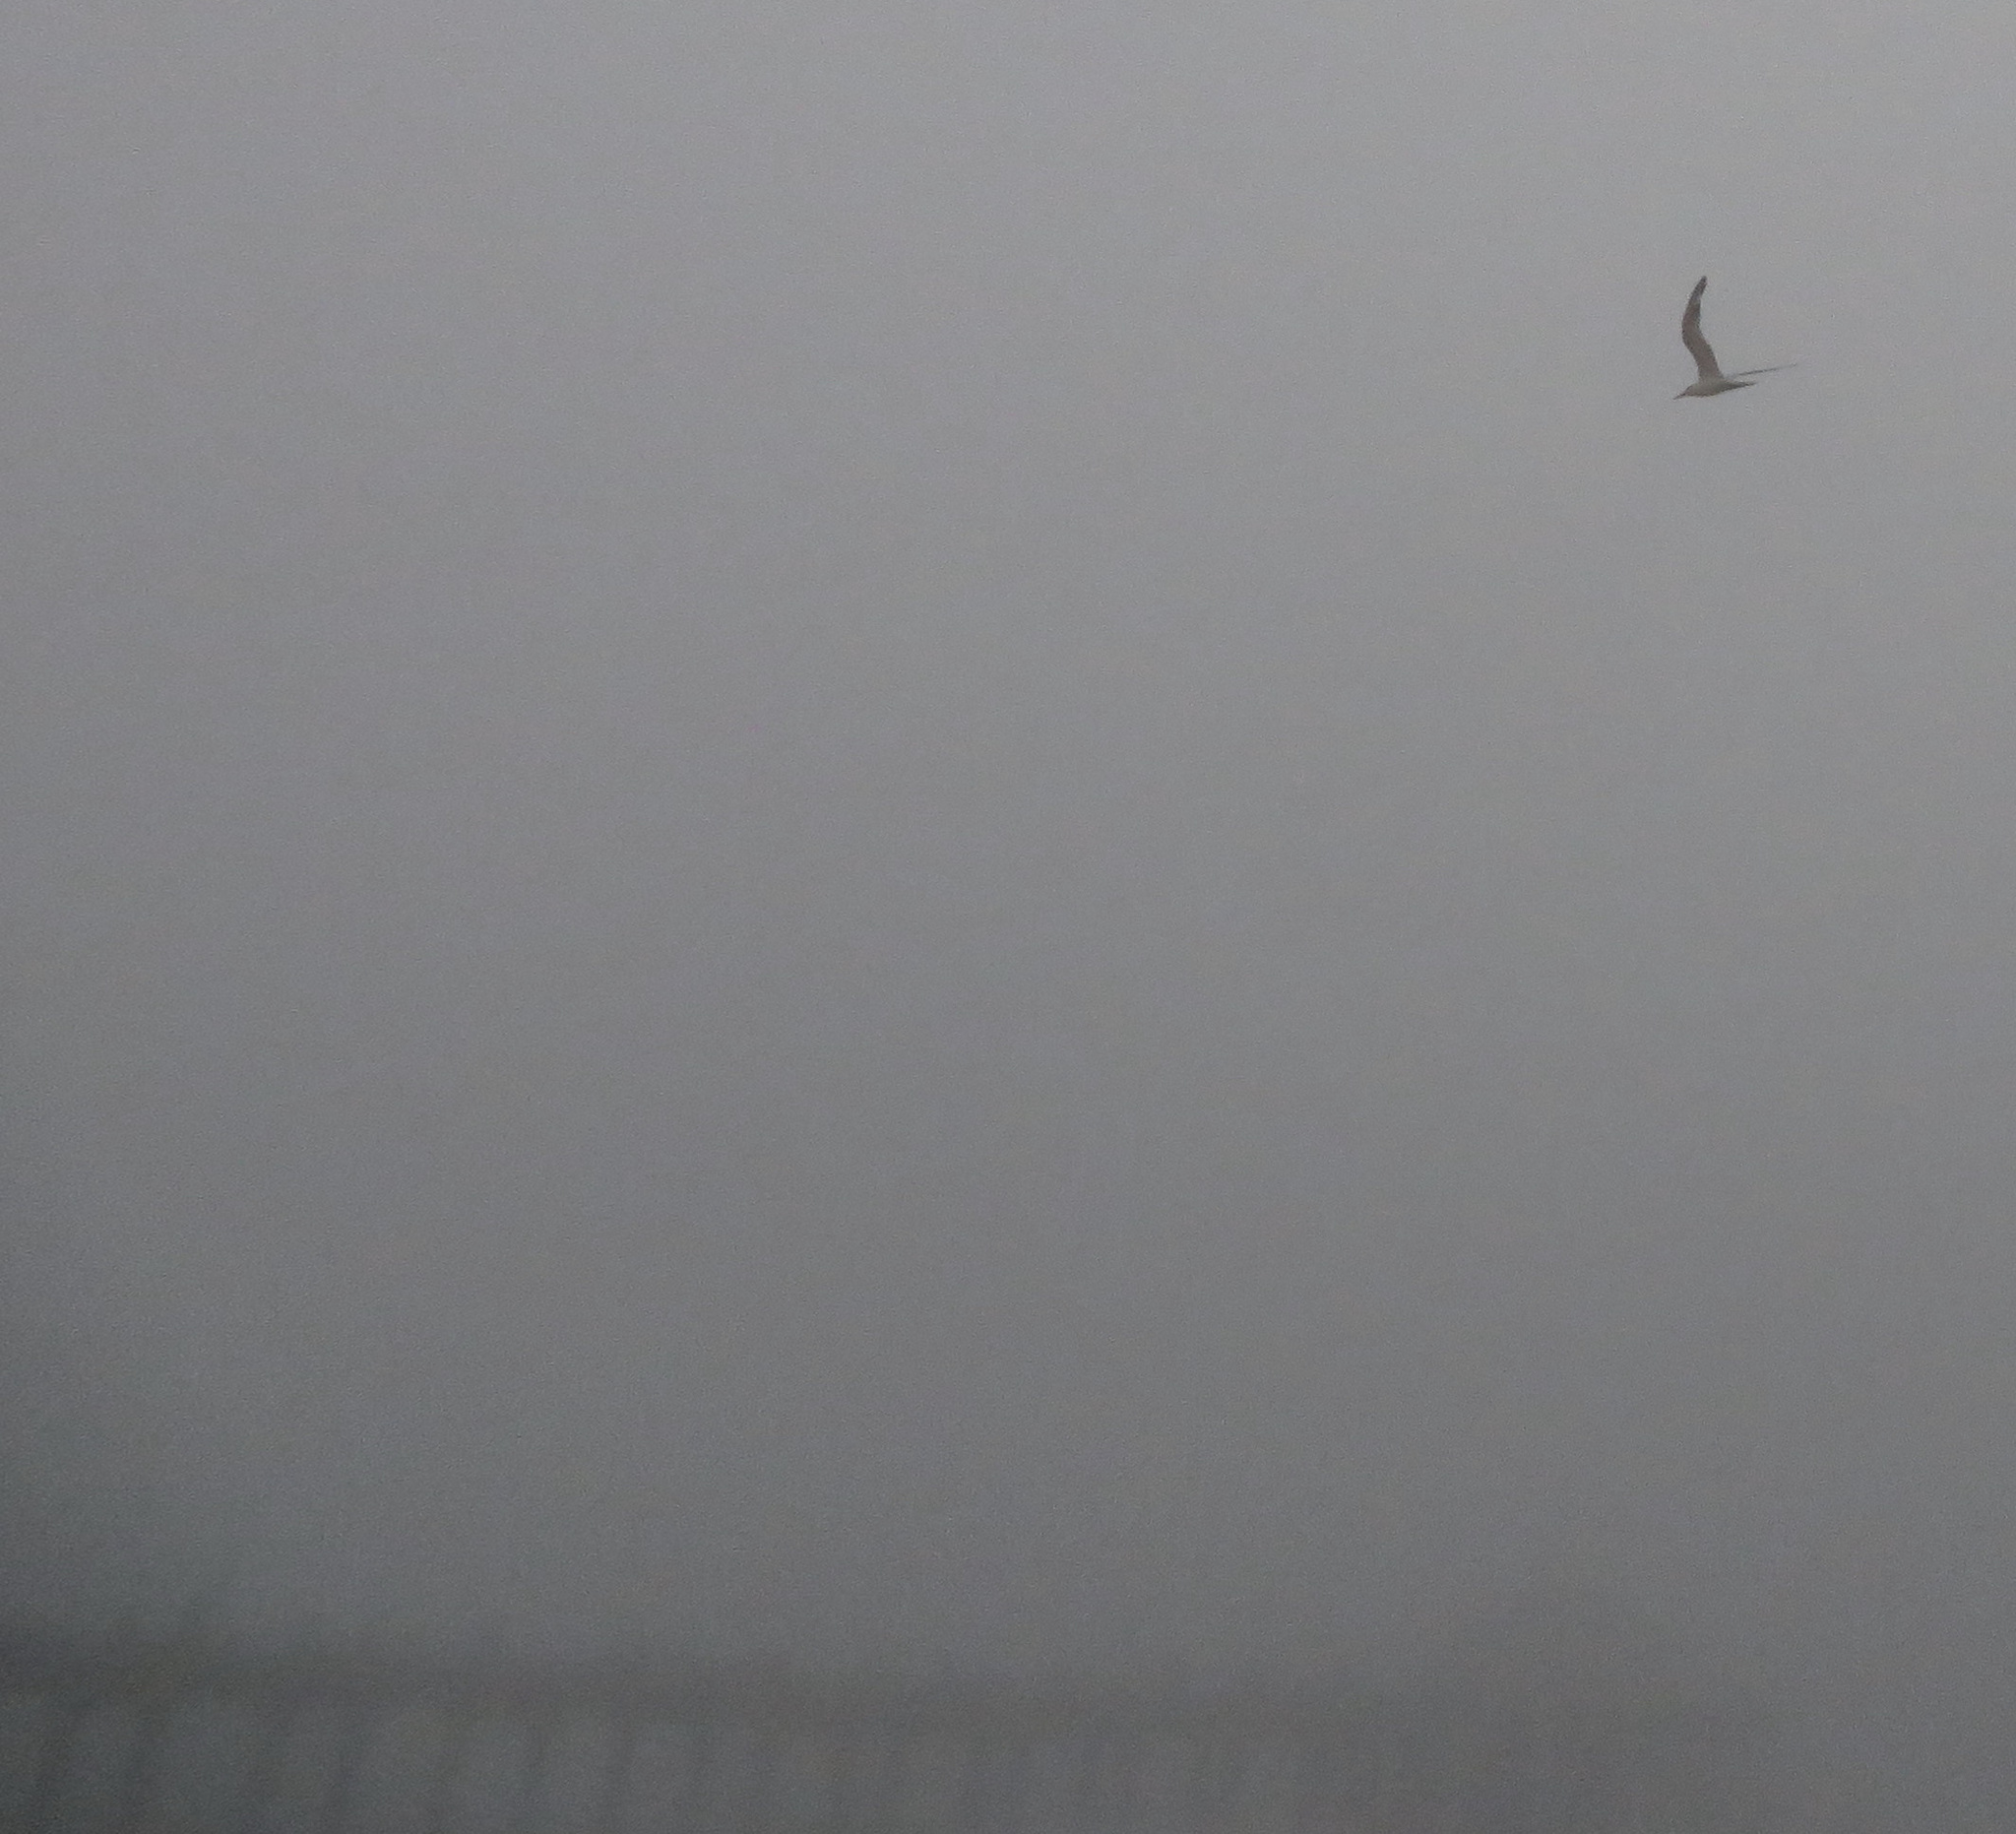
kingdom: Animalia
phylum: Chordata
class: Aves
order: Charadriiformes
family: Laridae
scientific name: Laridae
